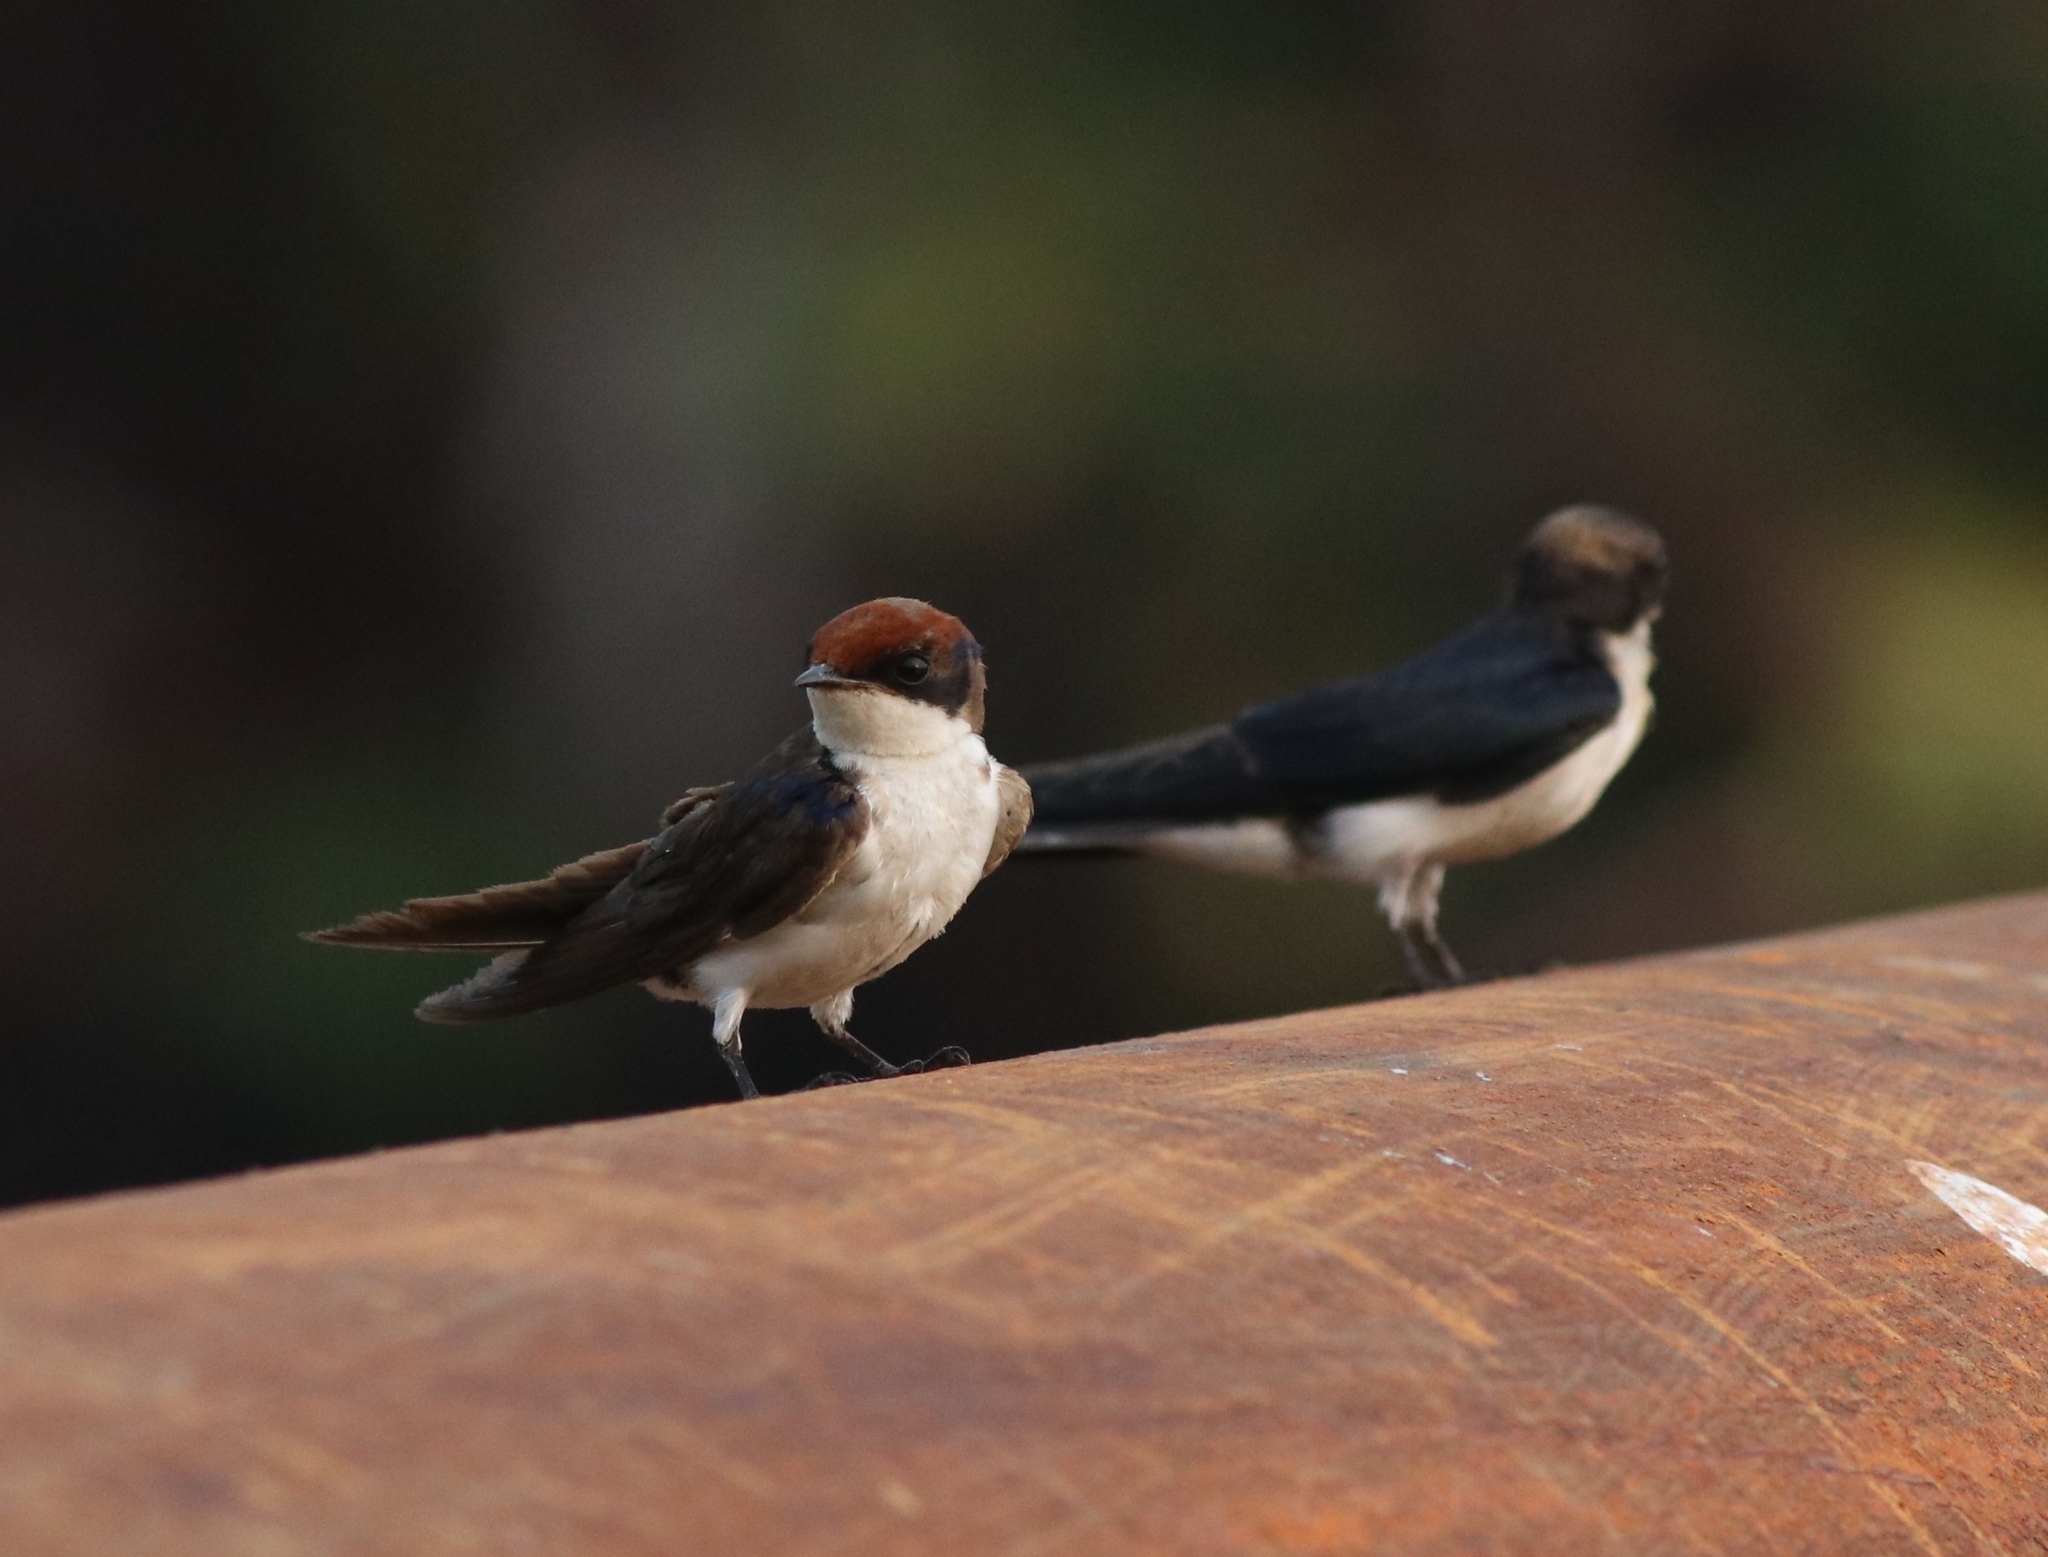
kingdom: Animalia
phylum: Chordata
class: Aves
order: Passeriformes
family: Hirundinidae
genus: Hirundo
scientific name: Hirundo smithii
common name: Wire-tailed swallow
